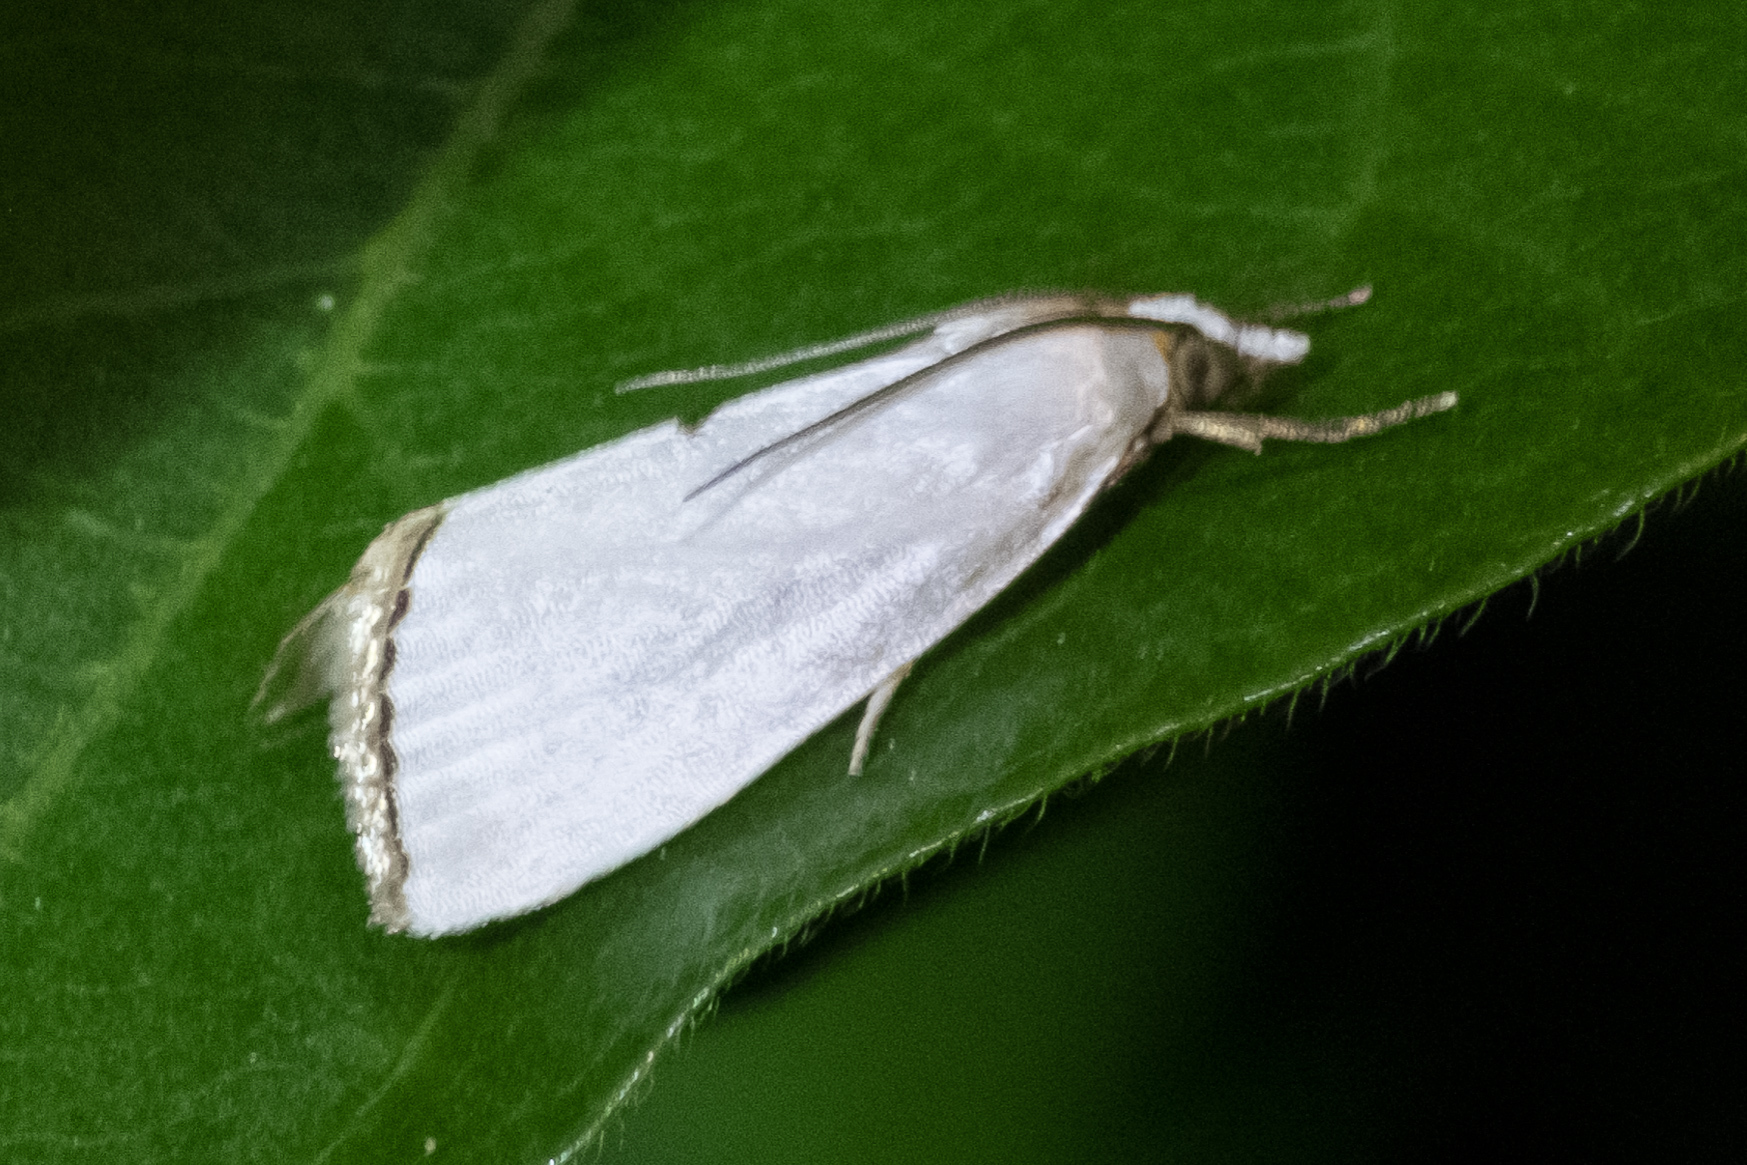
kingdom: Animalia
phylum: Arthropoda
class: Insecta
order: Lepidoptera
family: Crambidae
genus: Argyria
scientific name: Argyria nivalis
